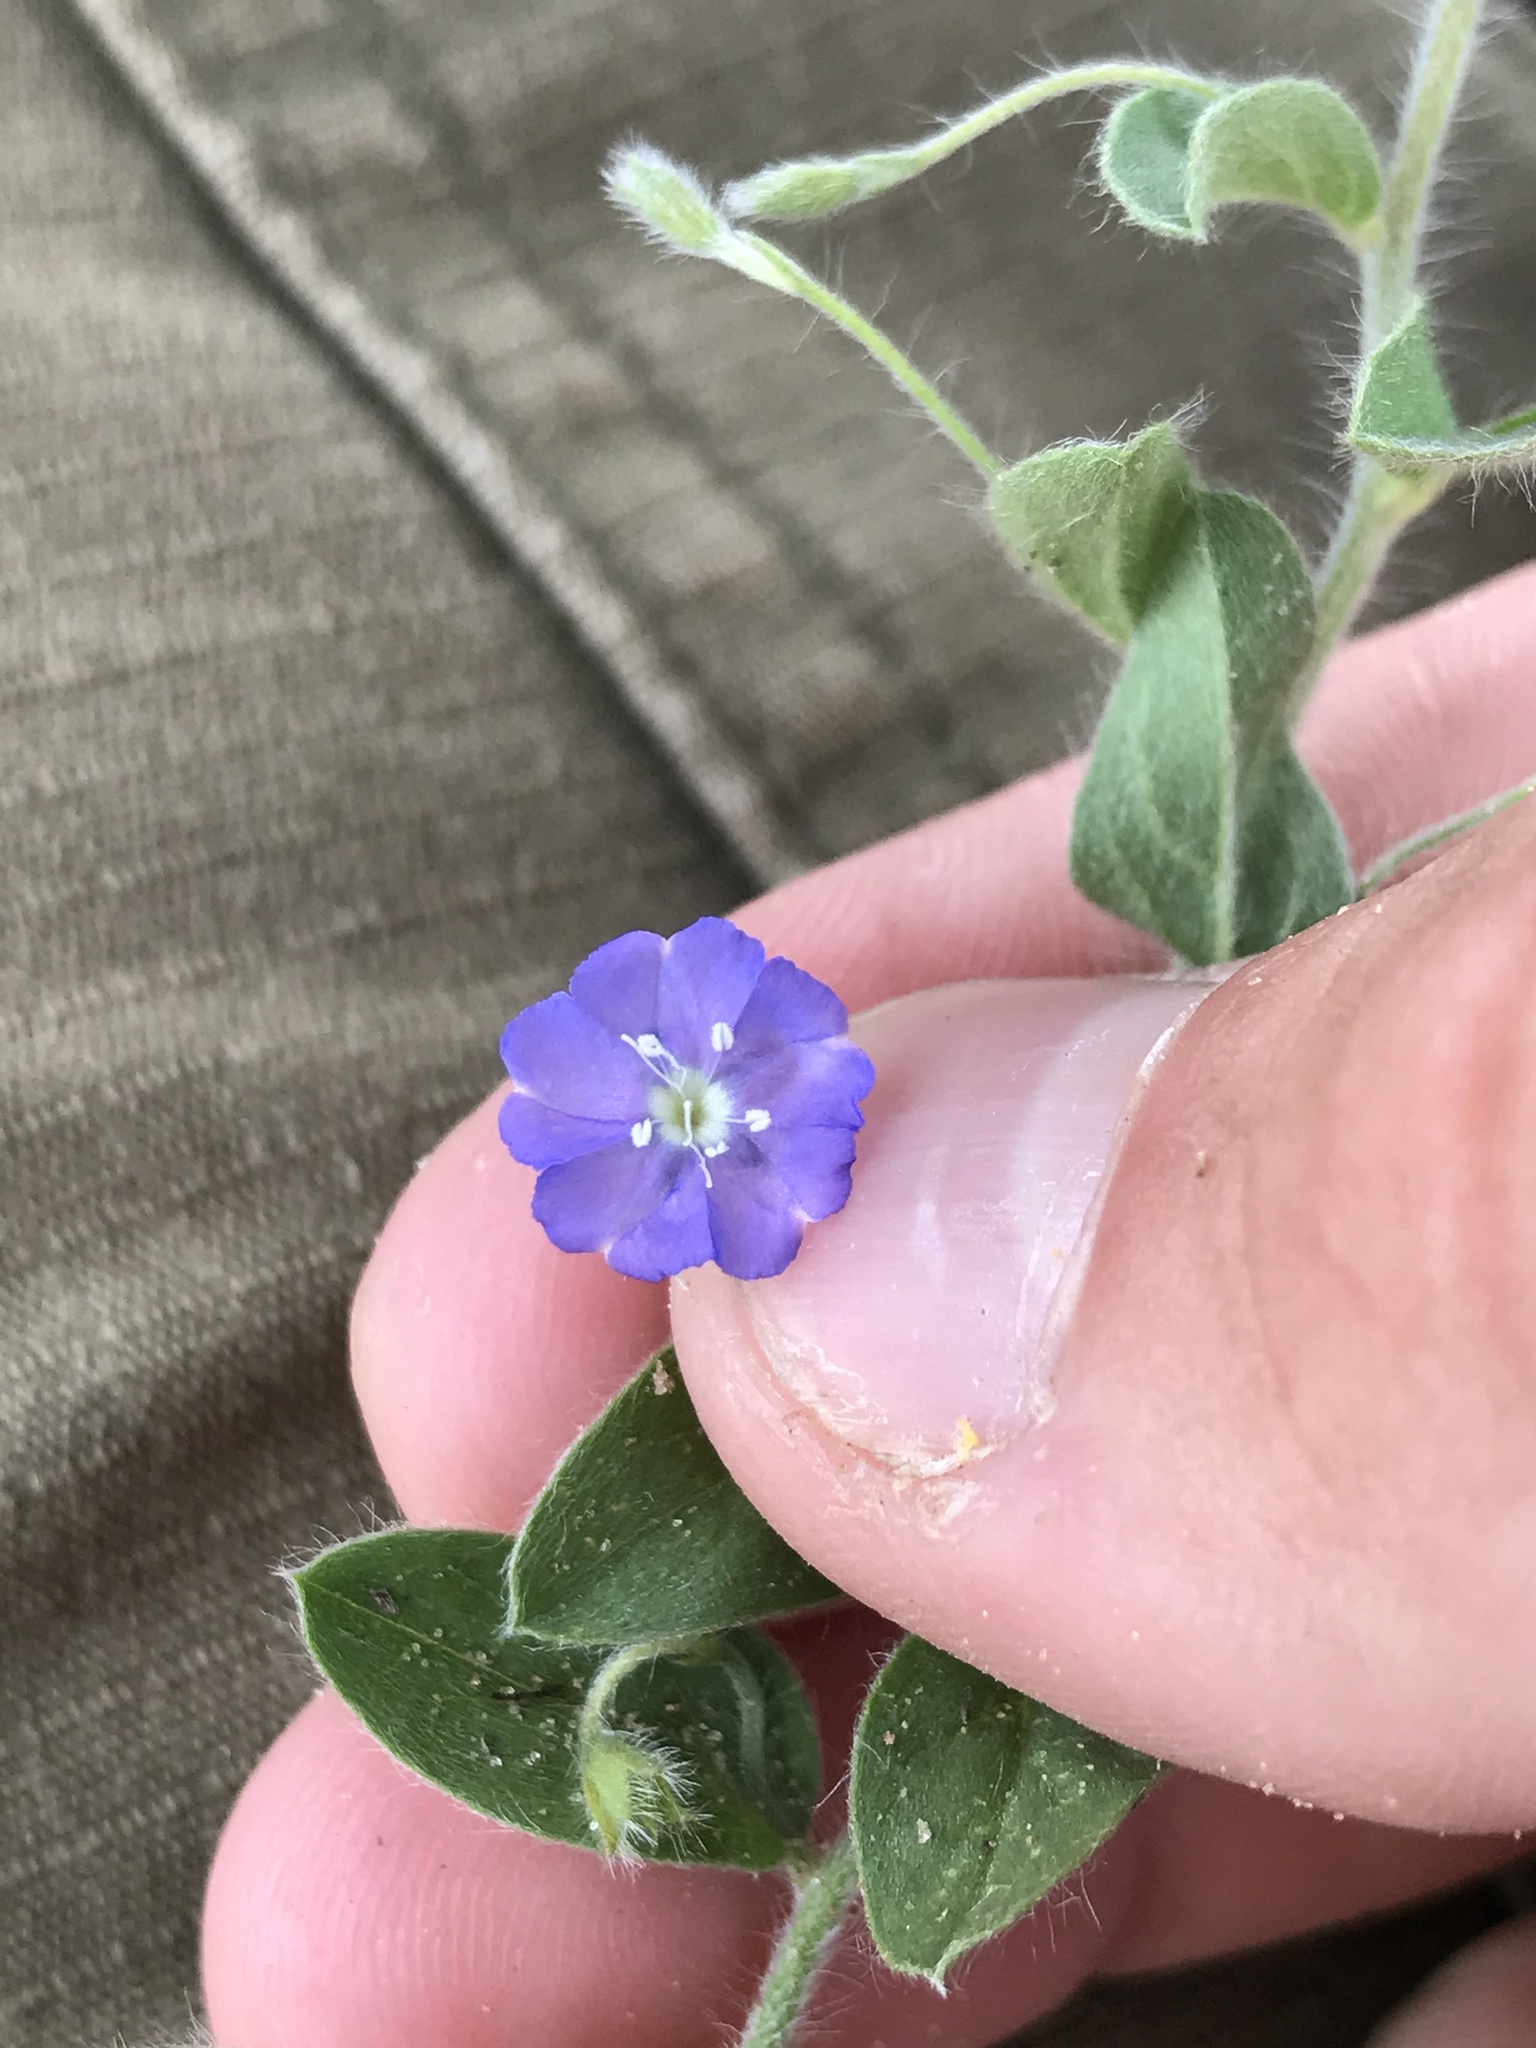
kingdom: Plantae
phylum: Tracheophyta
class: Magnoliopsida
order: Solanales
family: Convolvulaceae
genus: Evolvulus
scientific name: Evolvulus alsinoides
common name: Slender dwarf morning-glory
